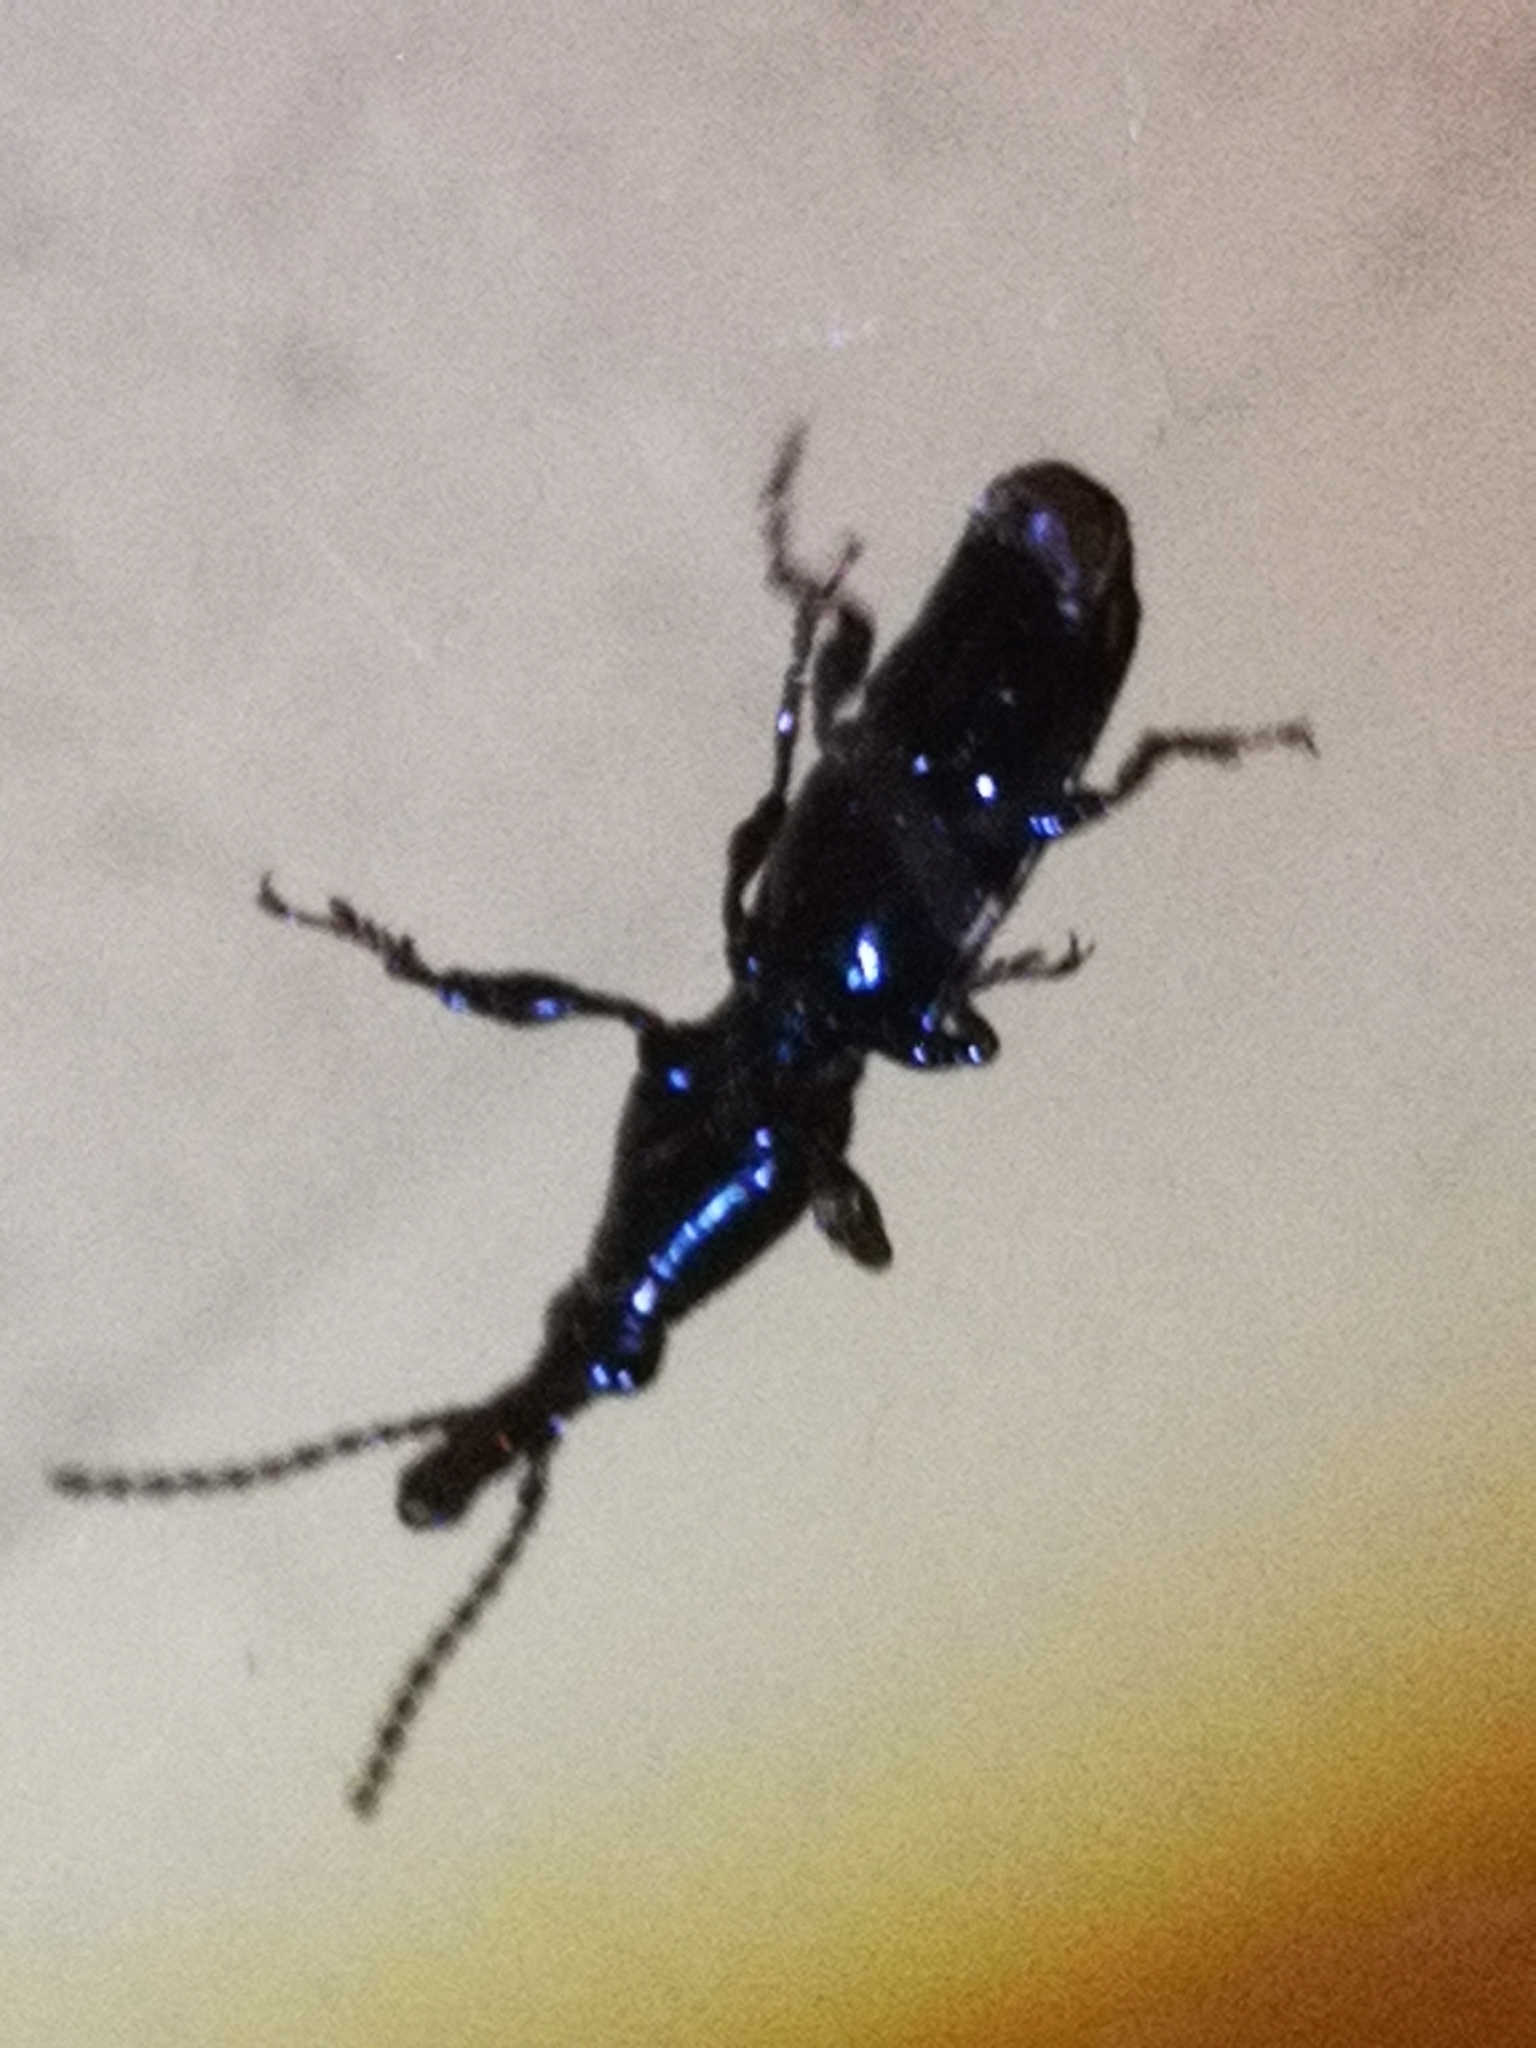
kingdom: Animalia
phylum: Arthropoda
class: Insecta
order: Coleoptera
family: Brentidae
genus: Arrenodes
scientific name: Arrenodes minutus
